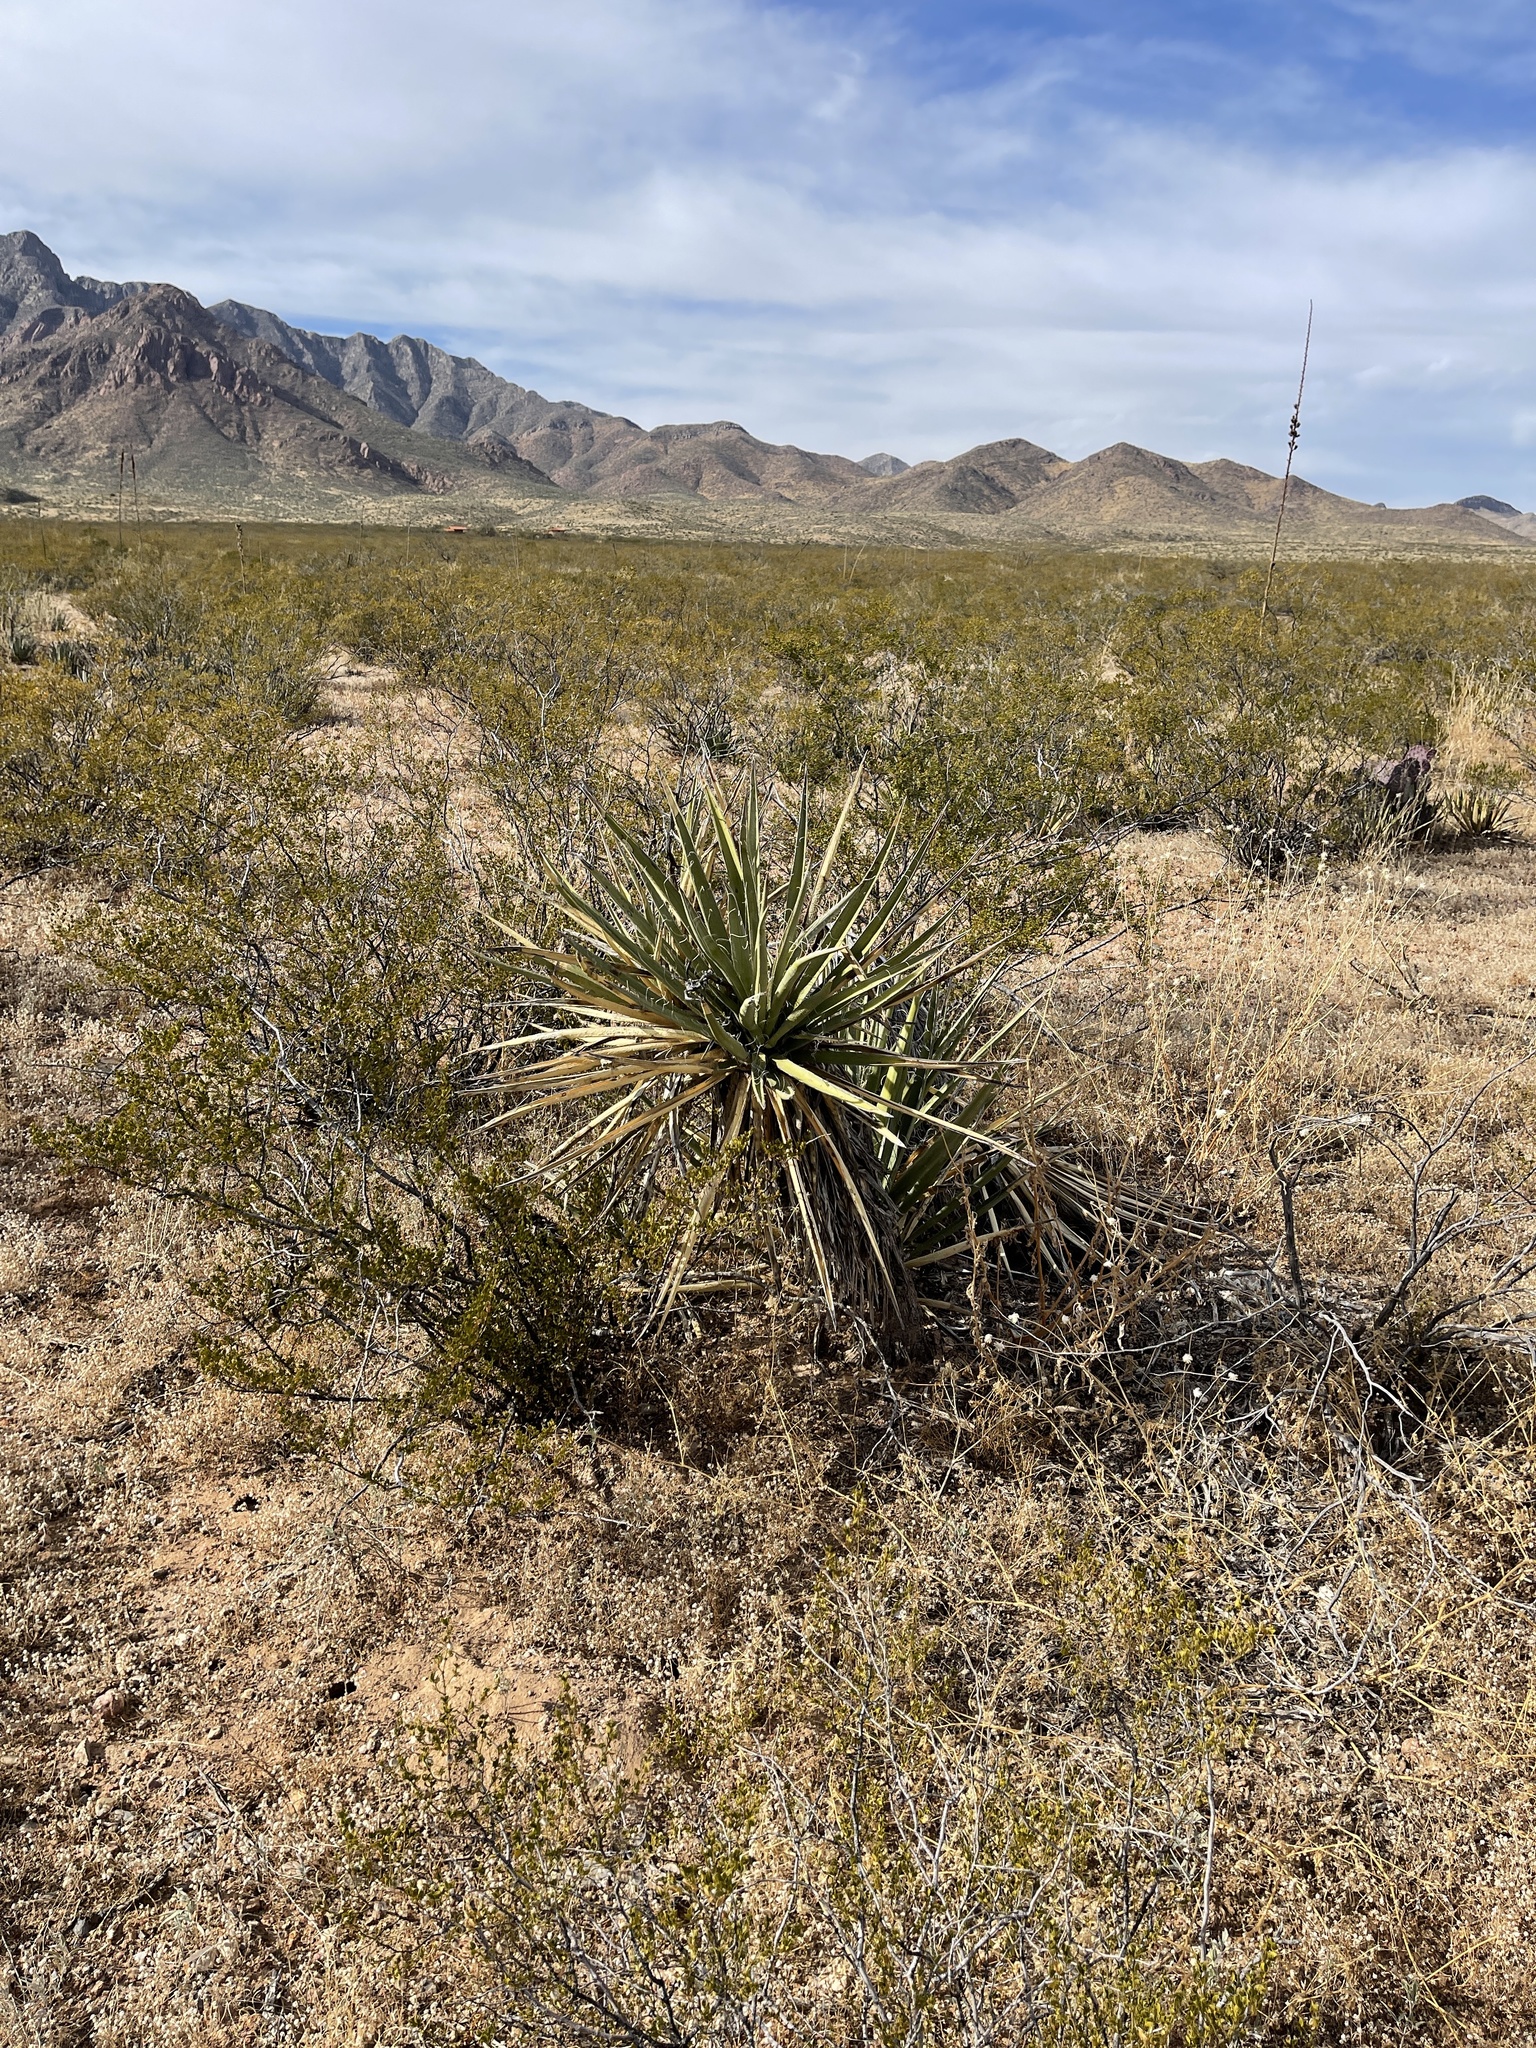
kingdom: Plantae
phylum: Tracheophyta
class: Liliopsida
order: Asparagales
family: Asparagaceae
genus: Yucca
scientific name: Yucca baccata
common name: Banana yucca
